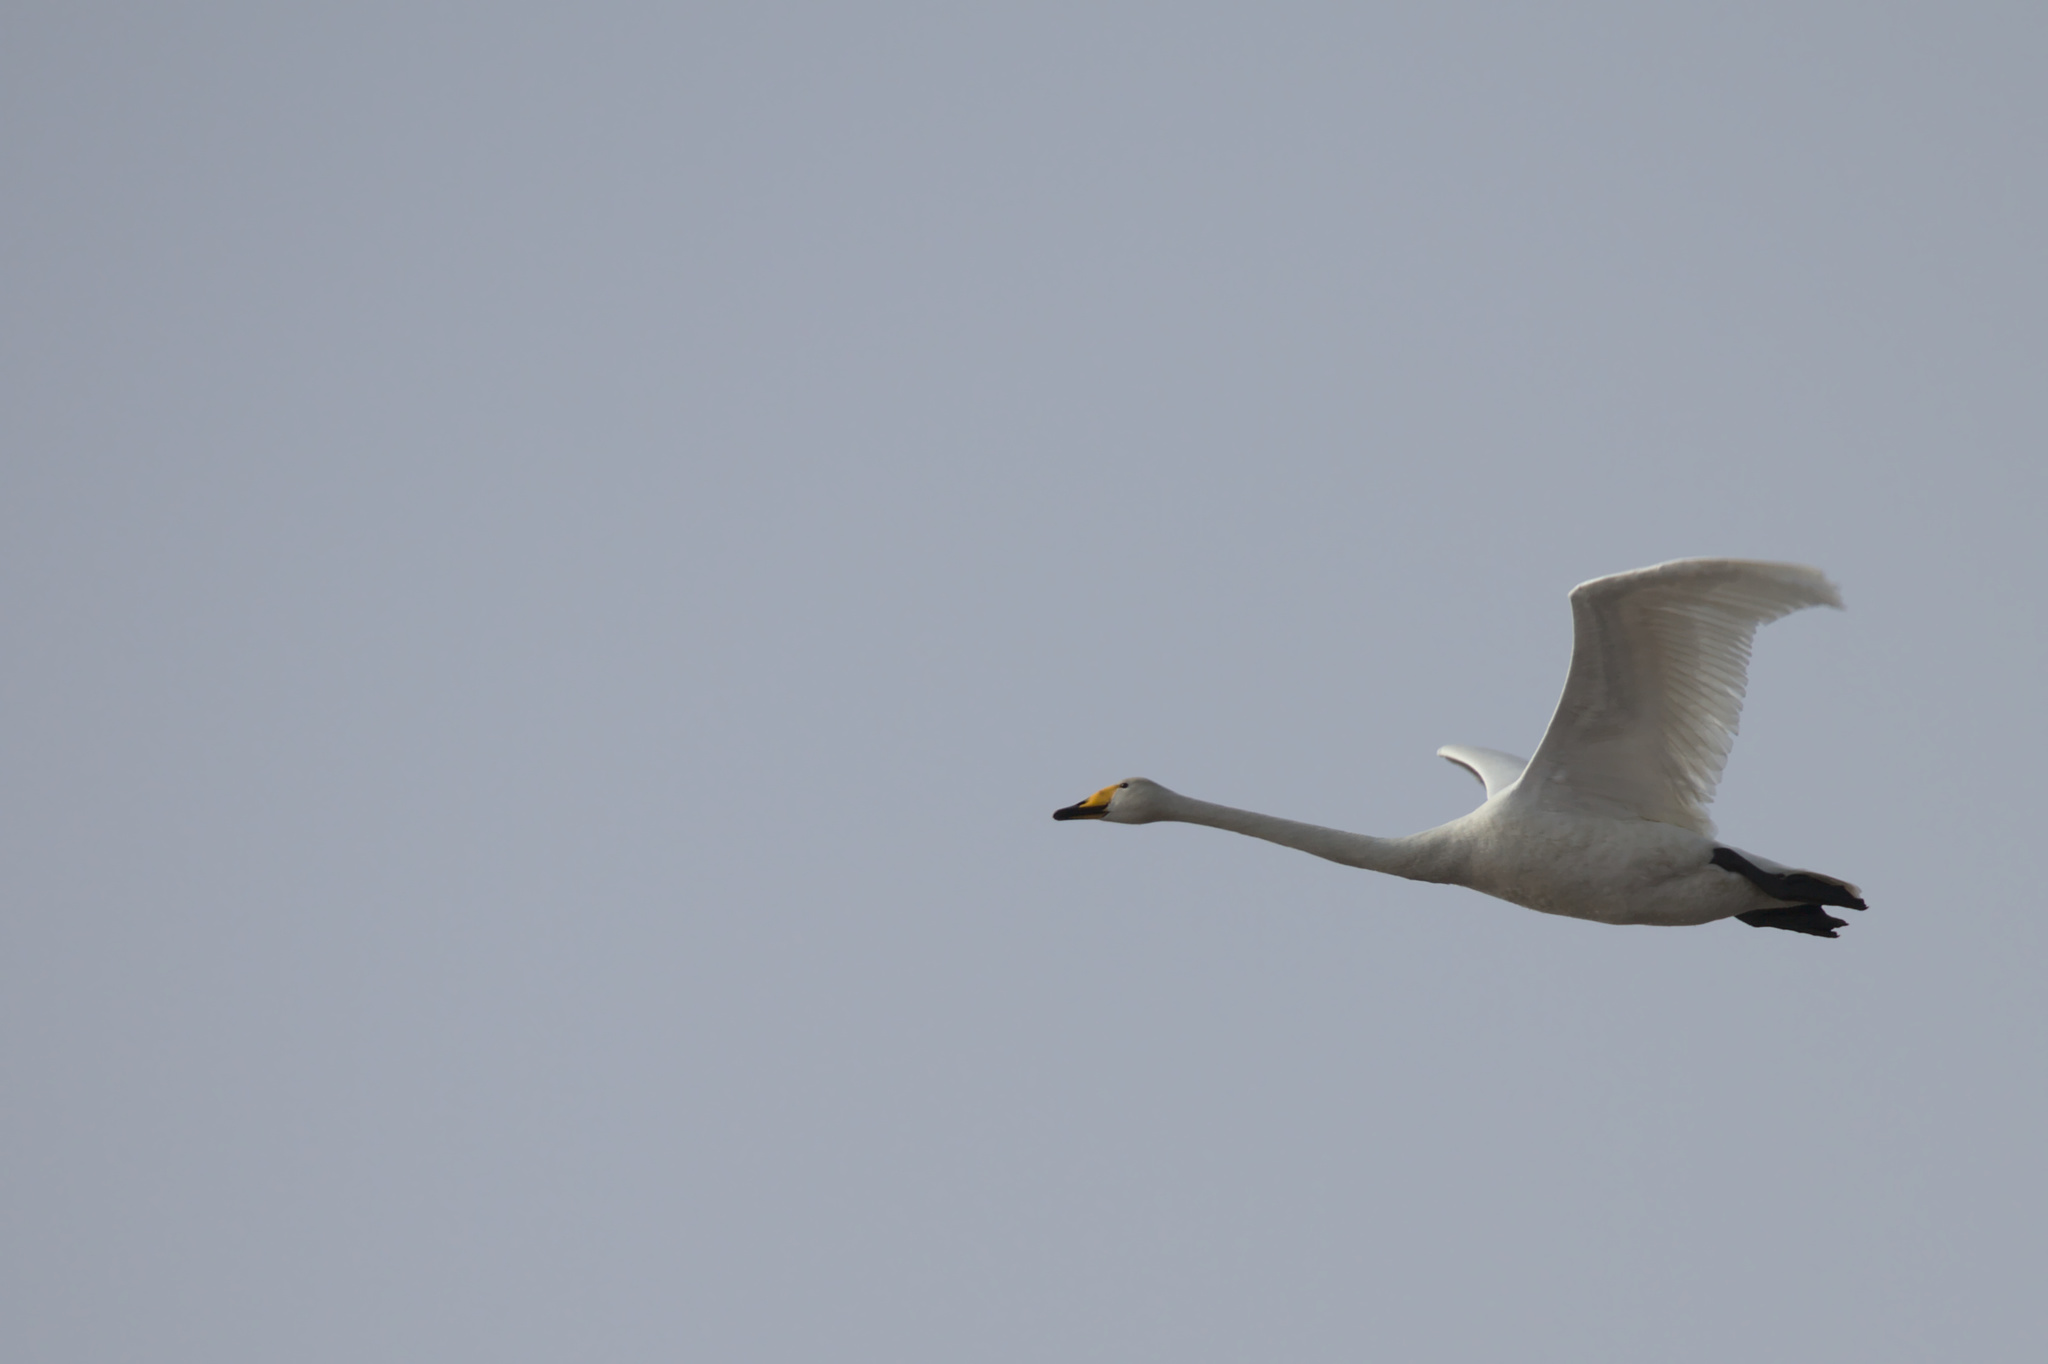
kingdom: Animalia
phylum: Chordata
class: Aves
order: Anseriformes
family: Anatidae
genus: Cygnus
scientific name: Cygnus cygnus
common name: Whooper swan
